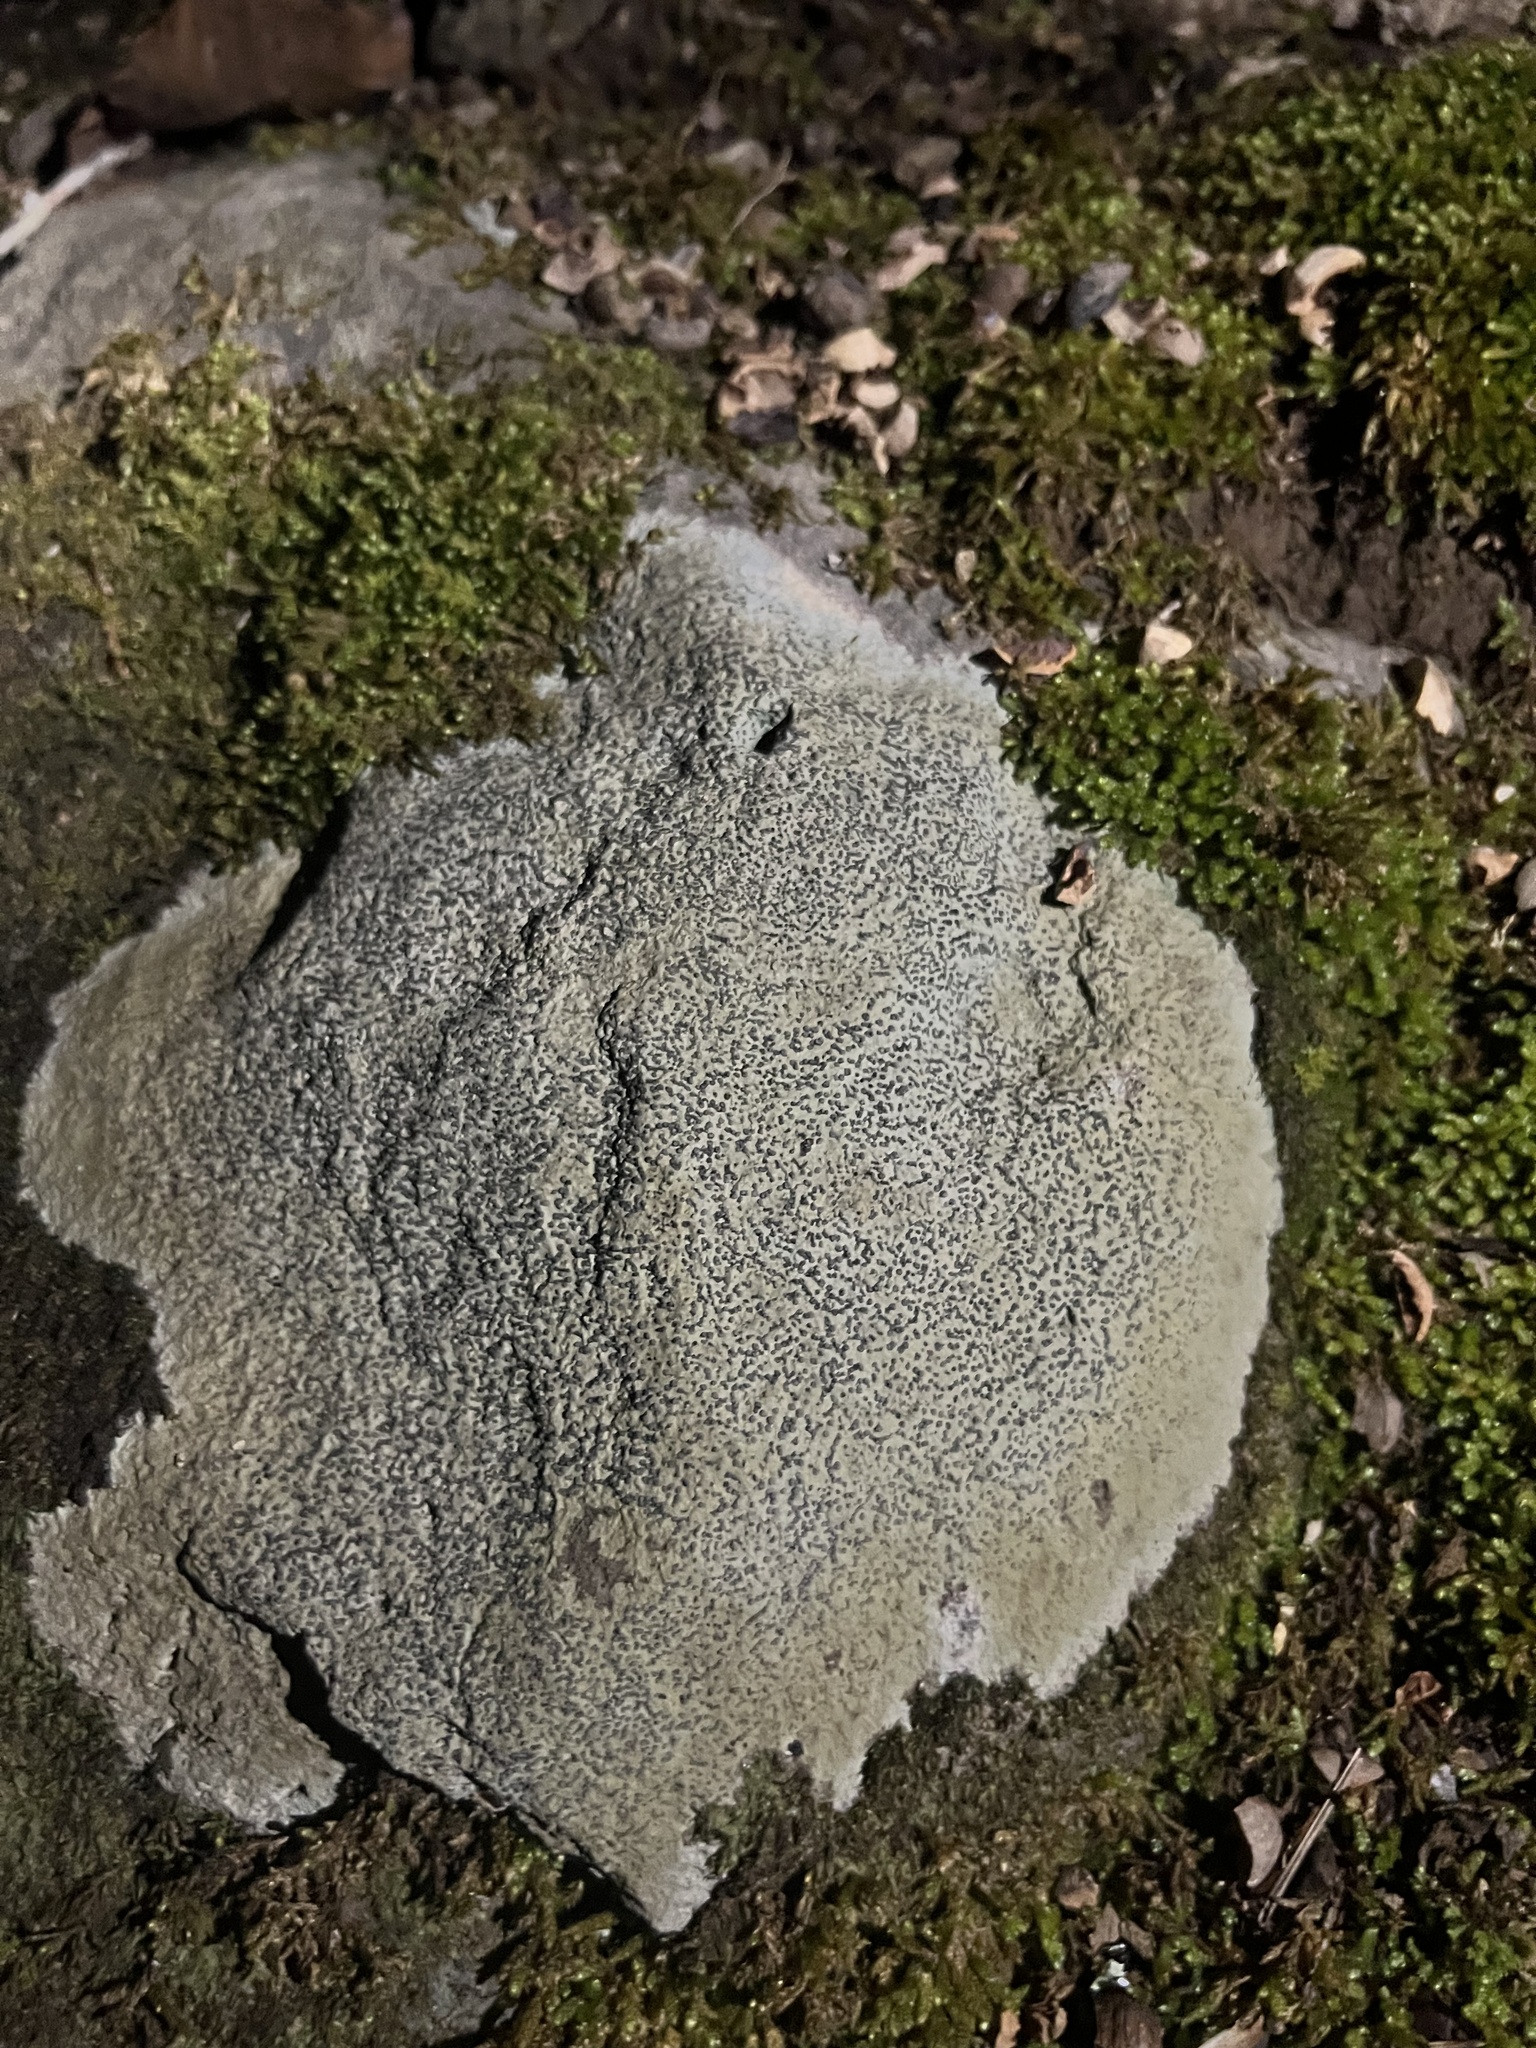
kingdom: Fungi
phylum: Ascomycota
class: Lecanoromycetes
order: Lecideales
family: Lecideaceae
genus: Porpidia
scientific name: Porpidia albocaerulescens
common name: Smokey-eyed boulder lichen
